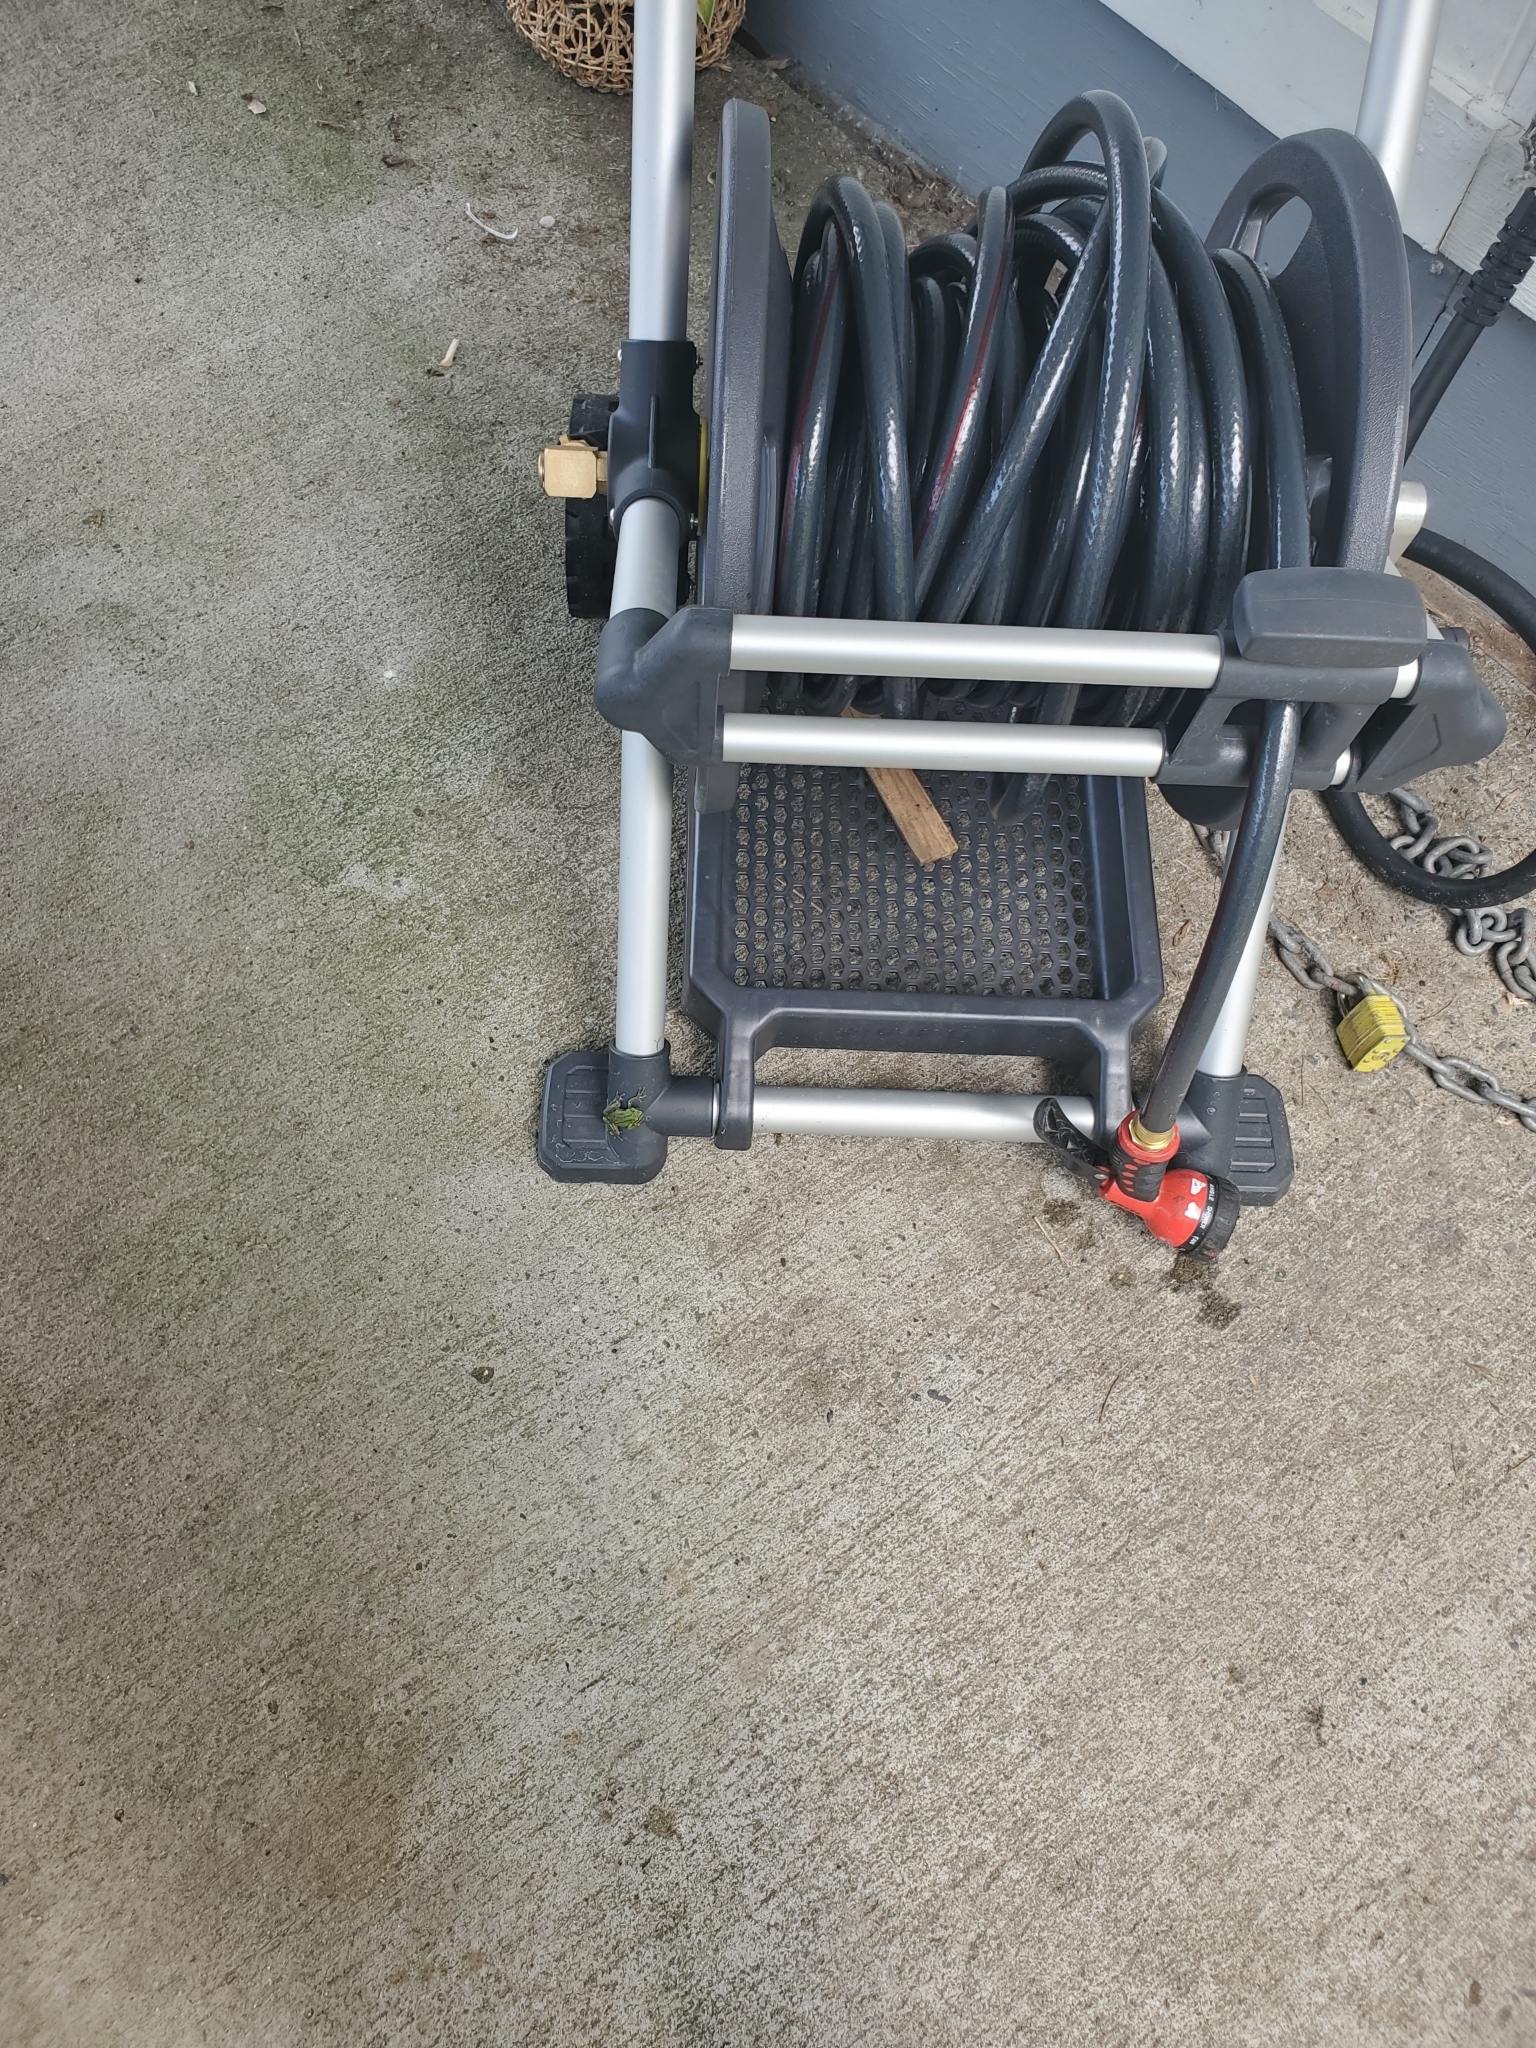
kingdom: Animalia
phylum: Chordata
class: Amphibia
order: Anura
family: Hylidae
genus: Pseudacris
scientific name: Pseudacris regilla
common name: Pacific chorus frog
